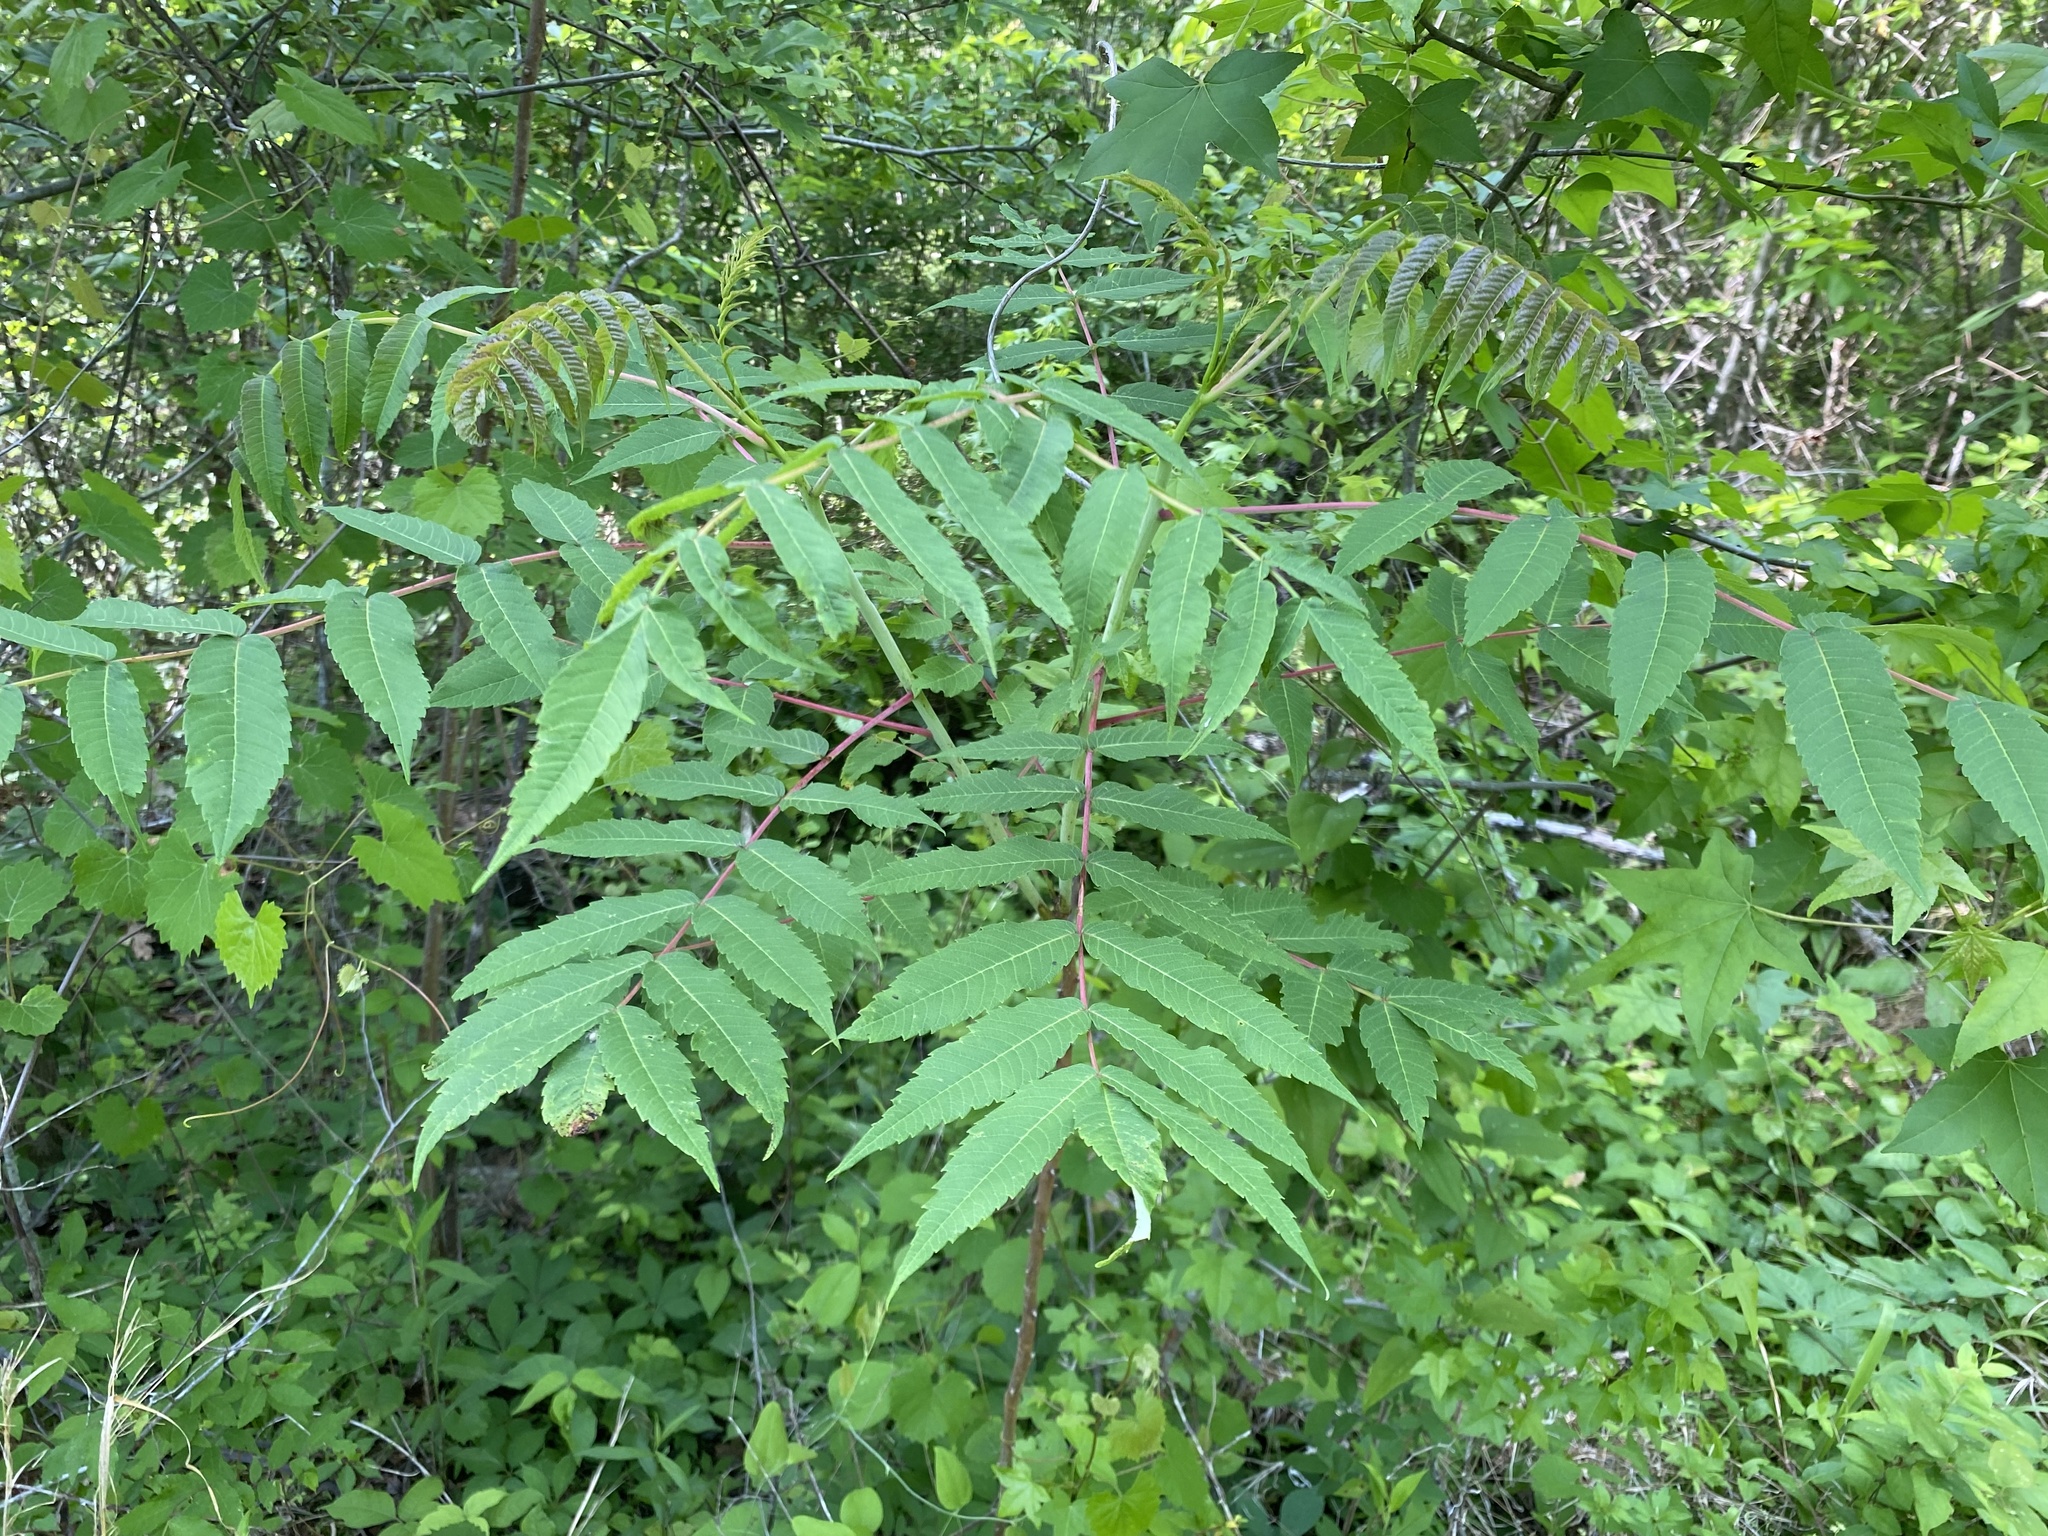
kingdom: Plantae
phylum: Tracheophyta
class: Magnoliopsida
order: Sapindales
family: Anacardiaceae
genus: Rhus
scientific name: Rhus glabra
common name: Scarlet sumac
